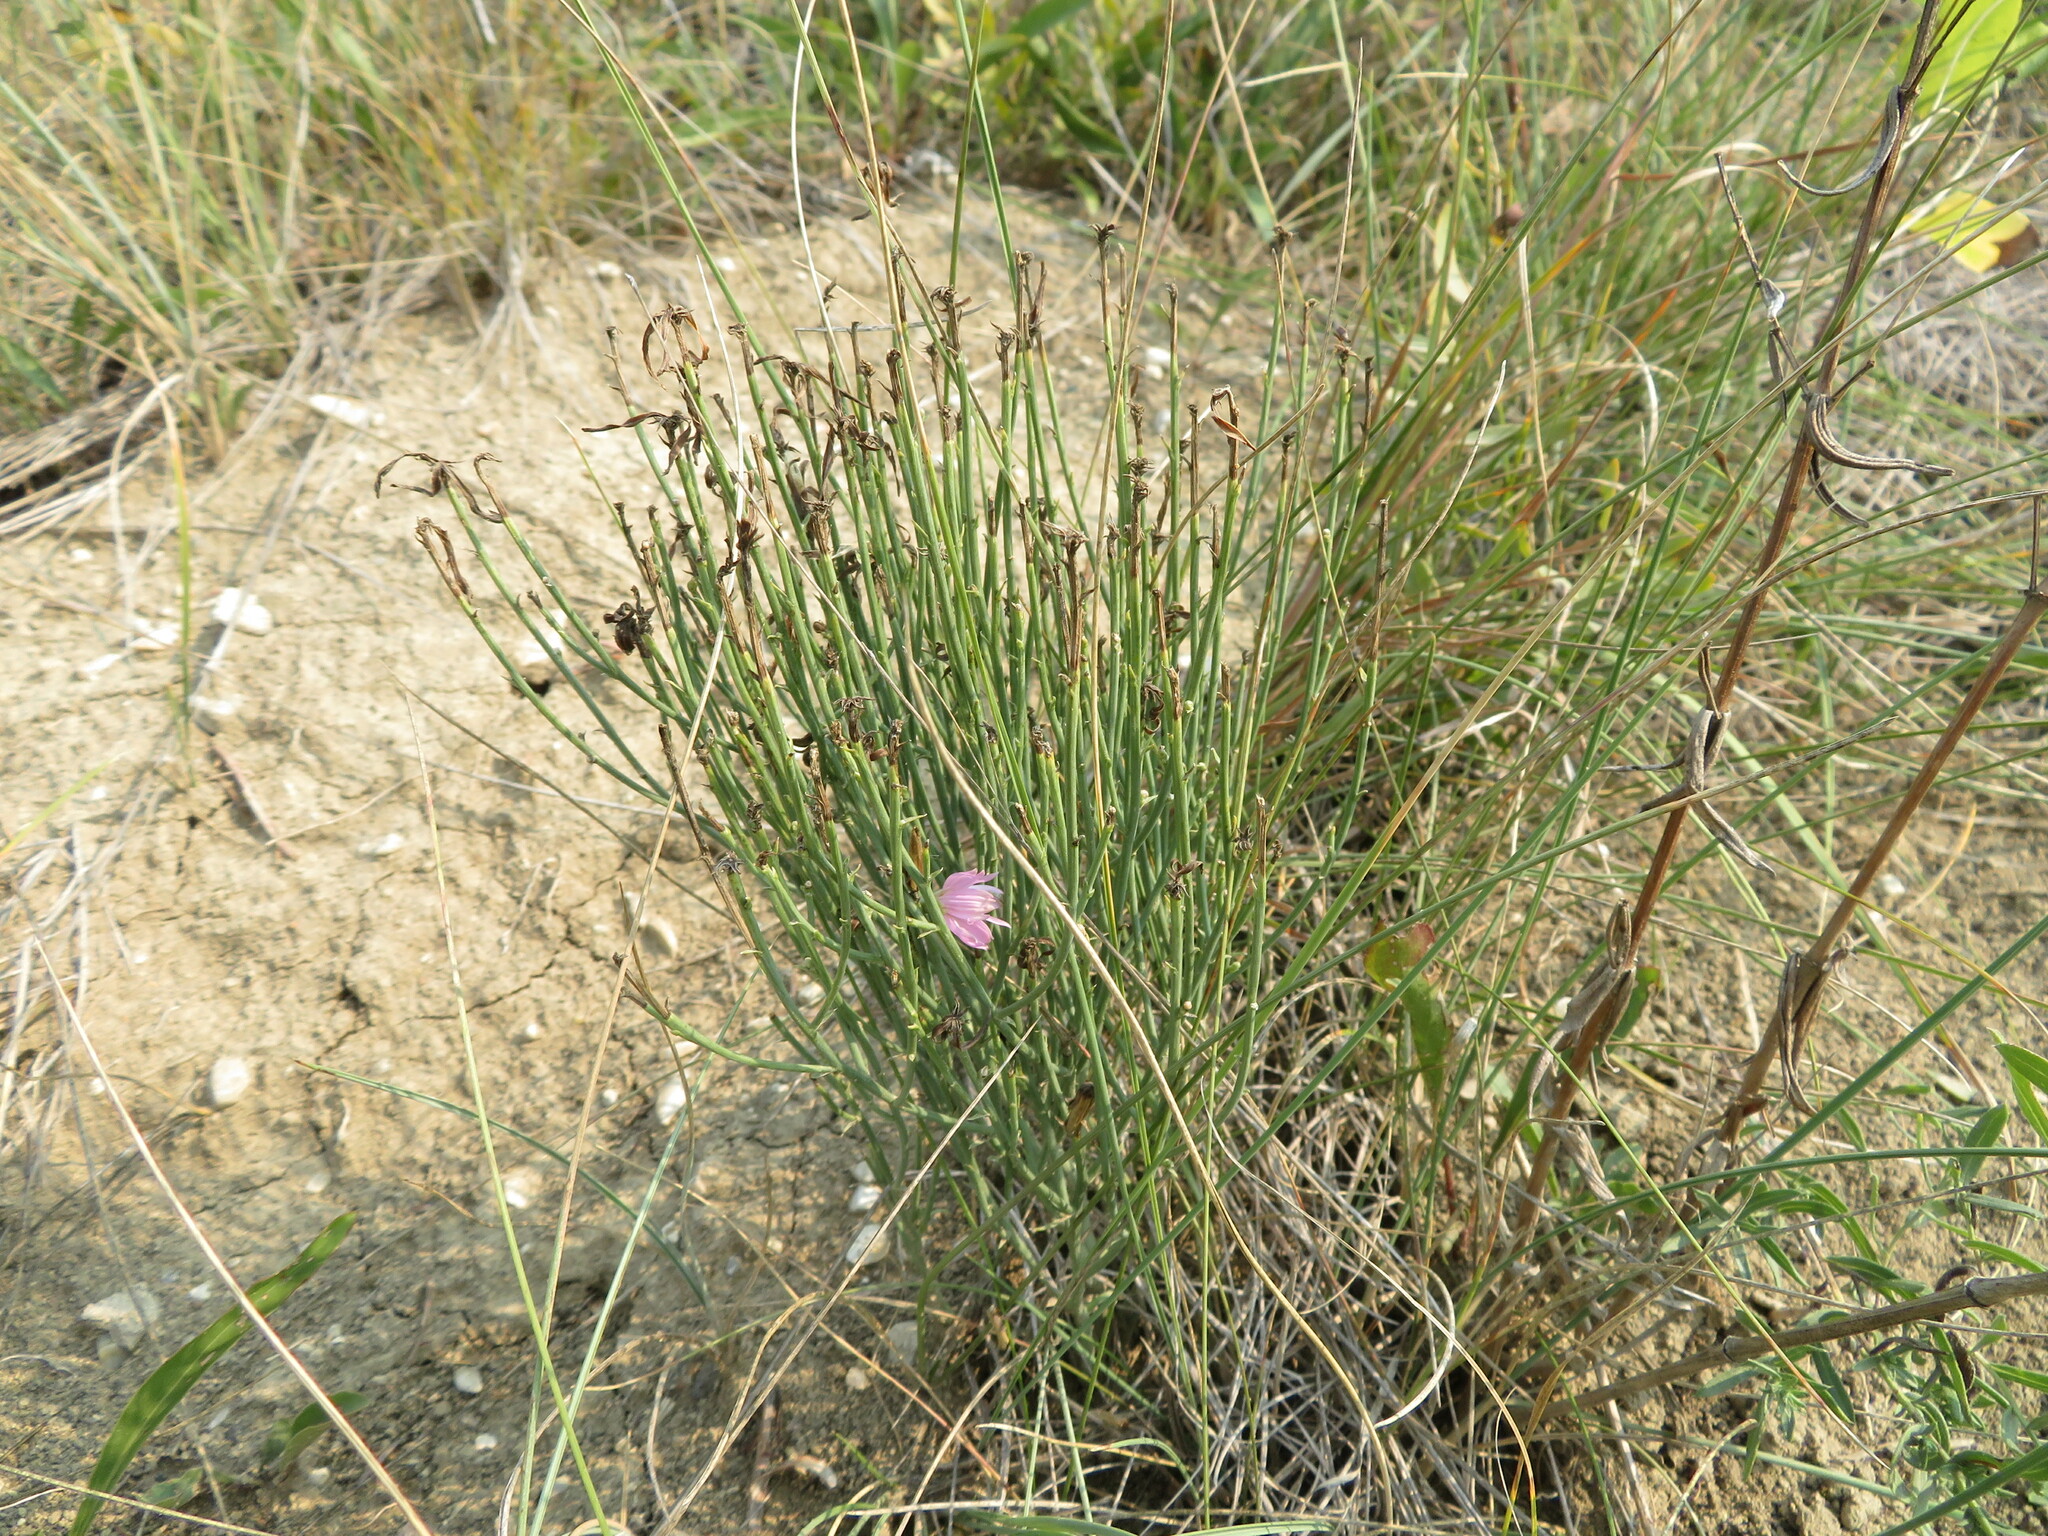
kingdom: Plantae
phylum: Tracheophyta
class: Magnoliopsida
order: Asterales
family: Asteraceae
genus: Lygodesmia
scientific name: Lygodesmia juncea
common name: Common skeletonweed
